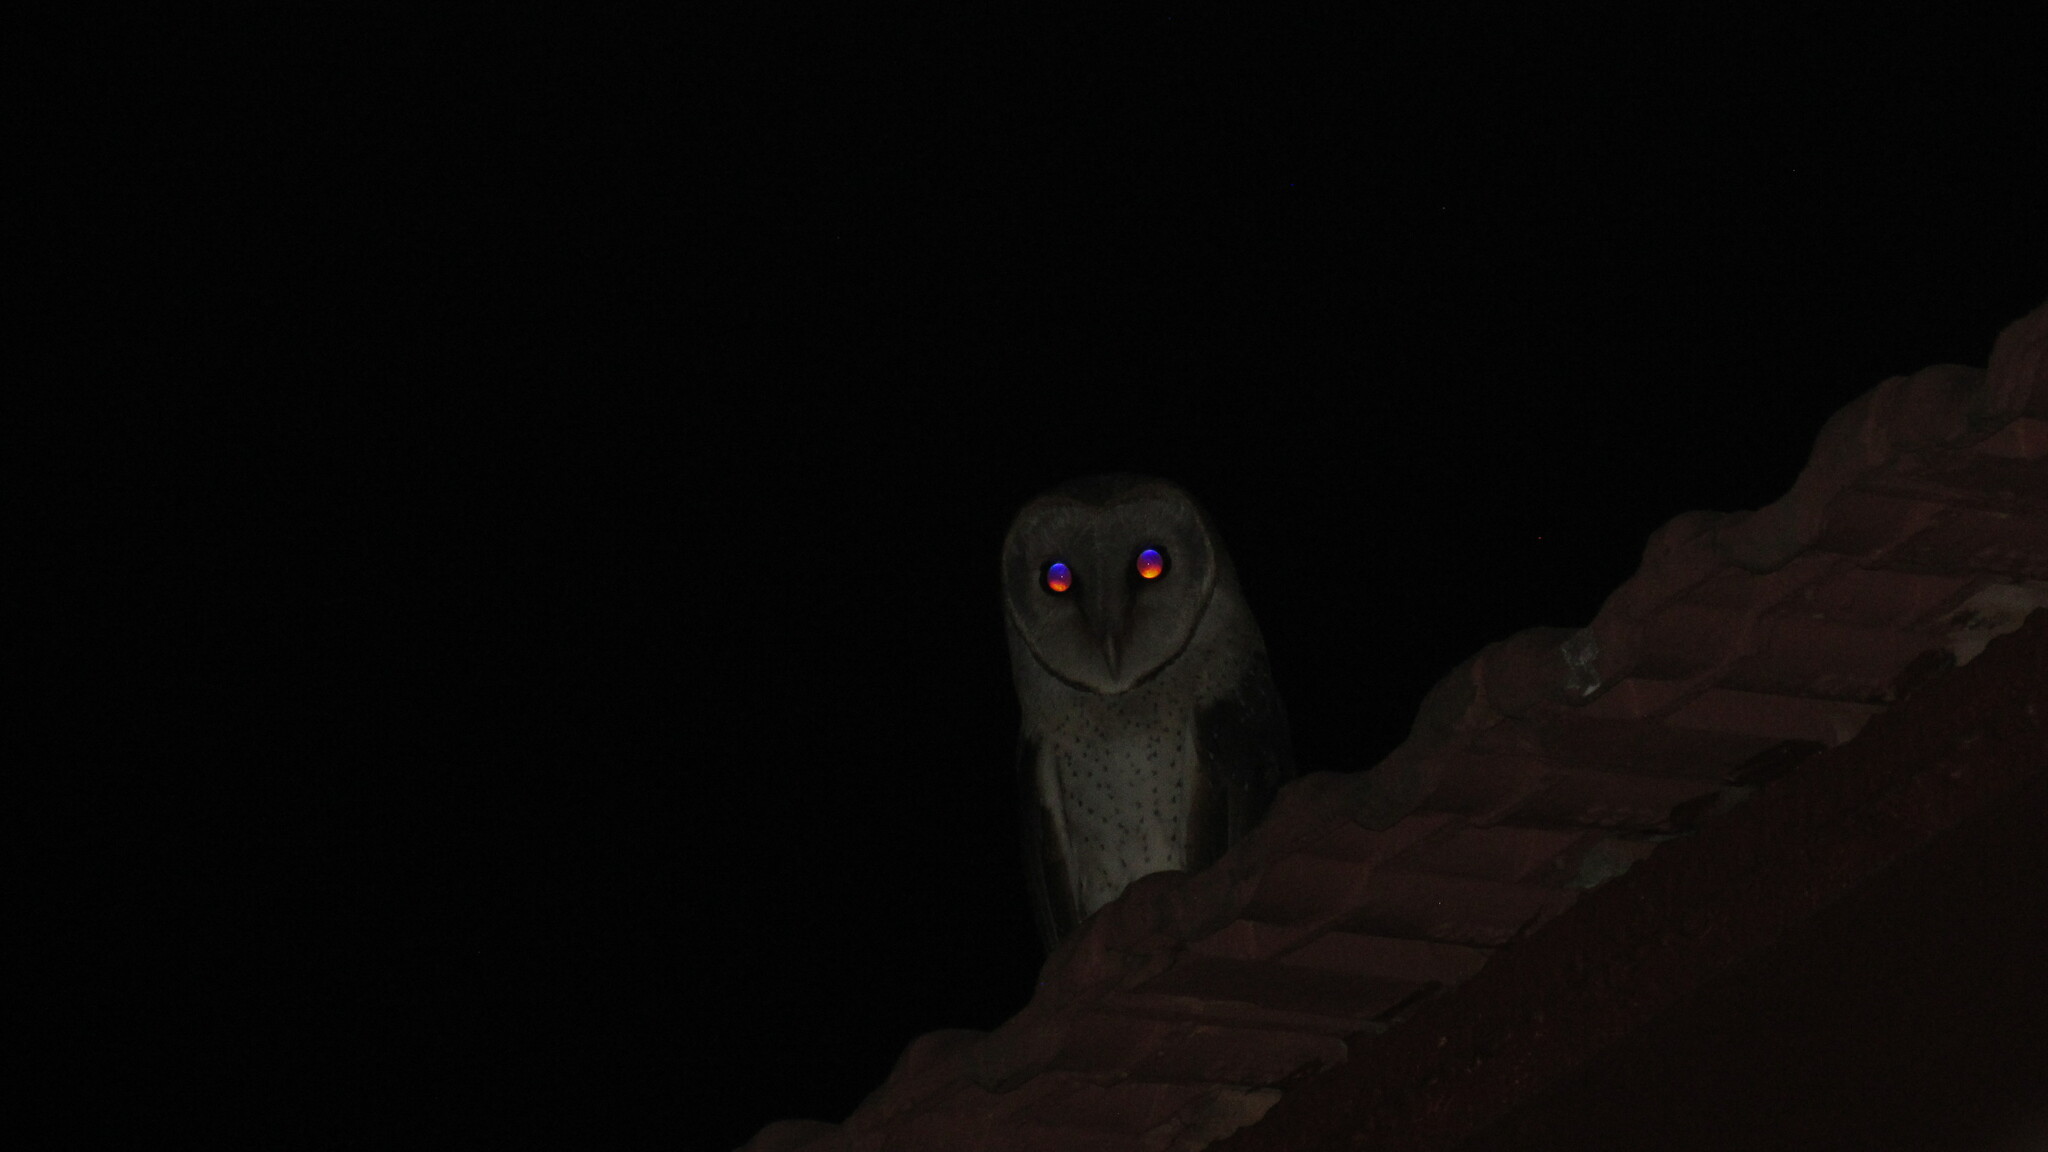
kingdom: Animalia
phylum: Chordata
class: Aves
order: Strigiformes
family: Tytonidae
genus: Tyto
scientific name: Tyto alba
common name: Barn owl
